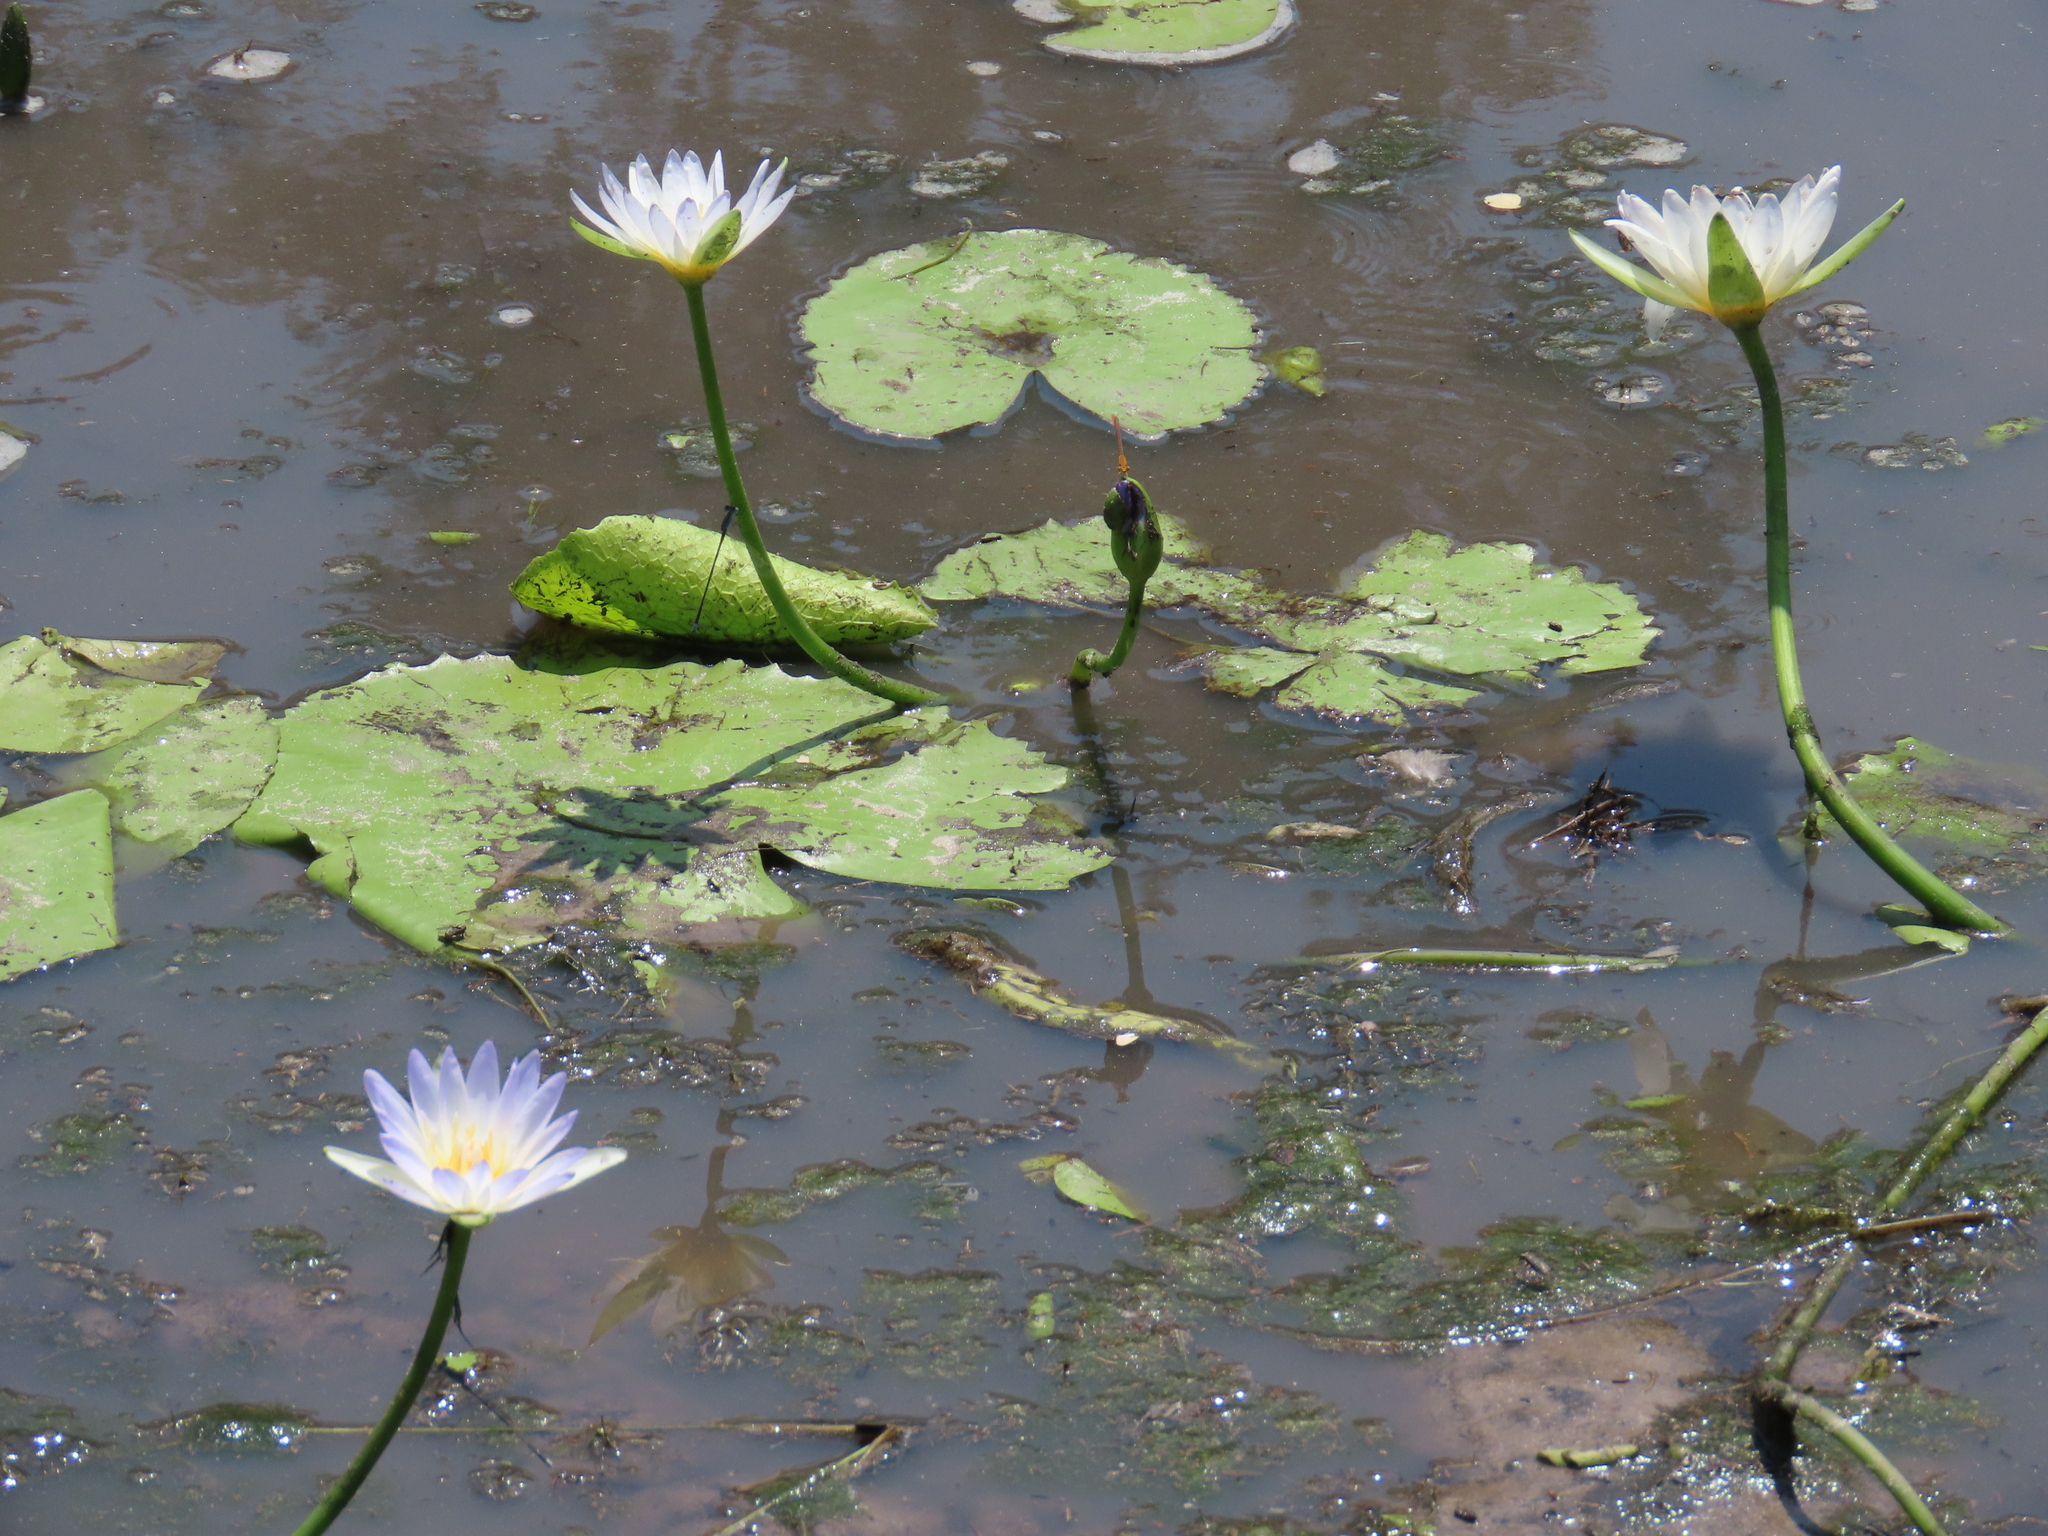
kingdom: Plantae
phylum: Tracheophyta
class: Magnoliopsida
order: Nymphaeales
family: Nymphaeaceae
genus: Nymphaea
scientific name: Nymphaea nouchali
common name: Blue lotus
